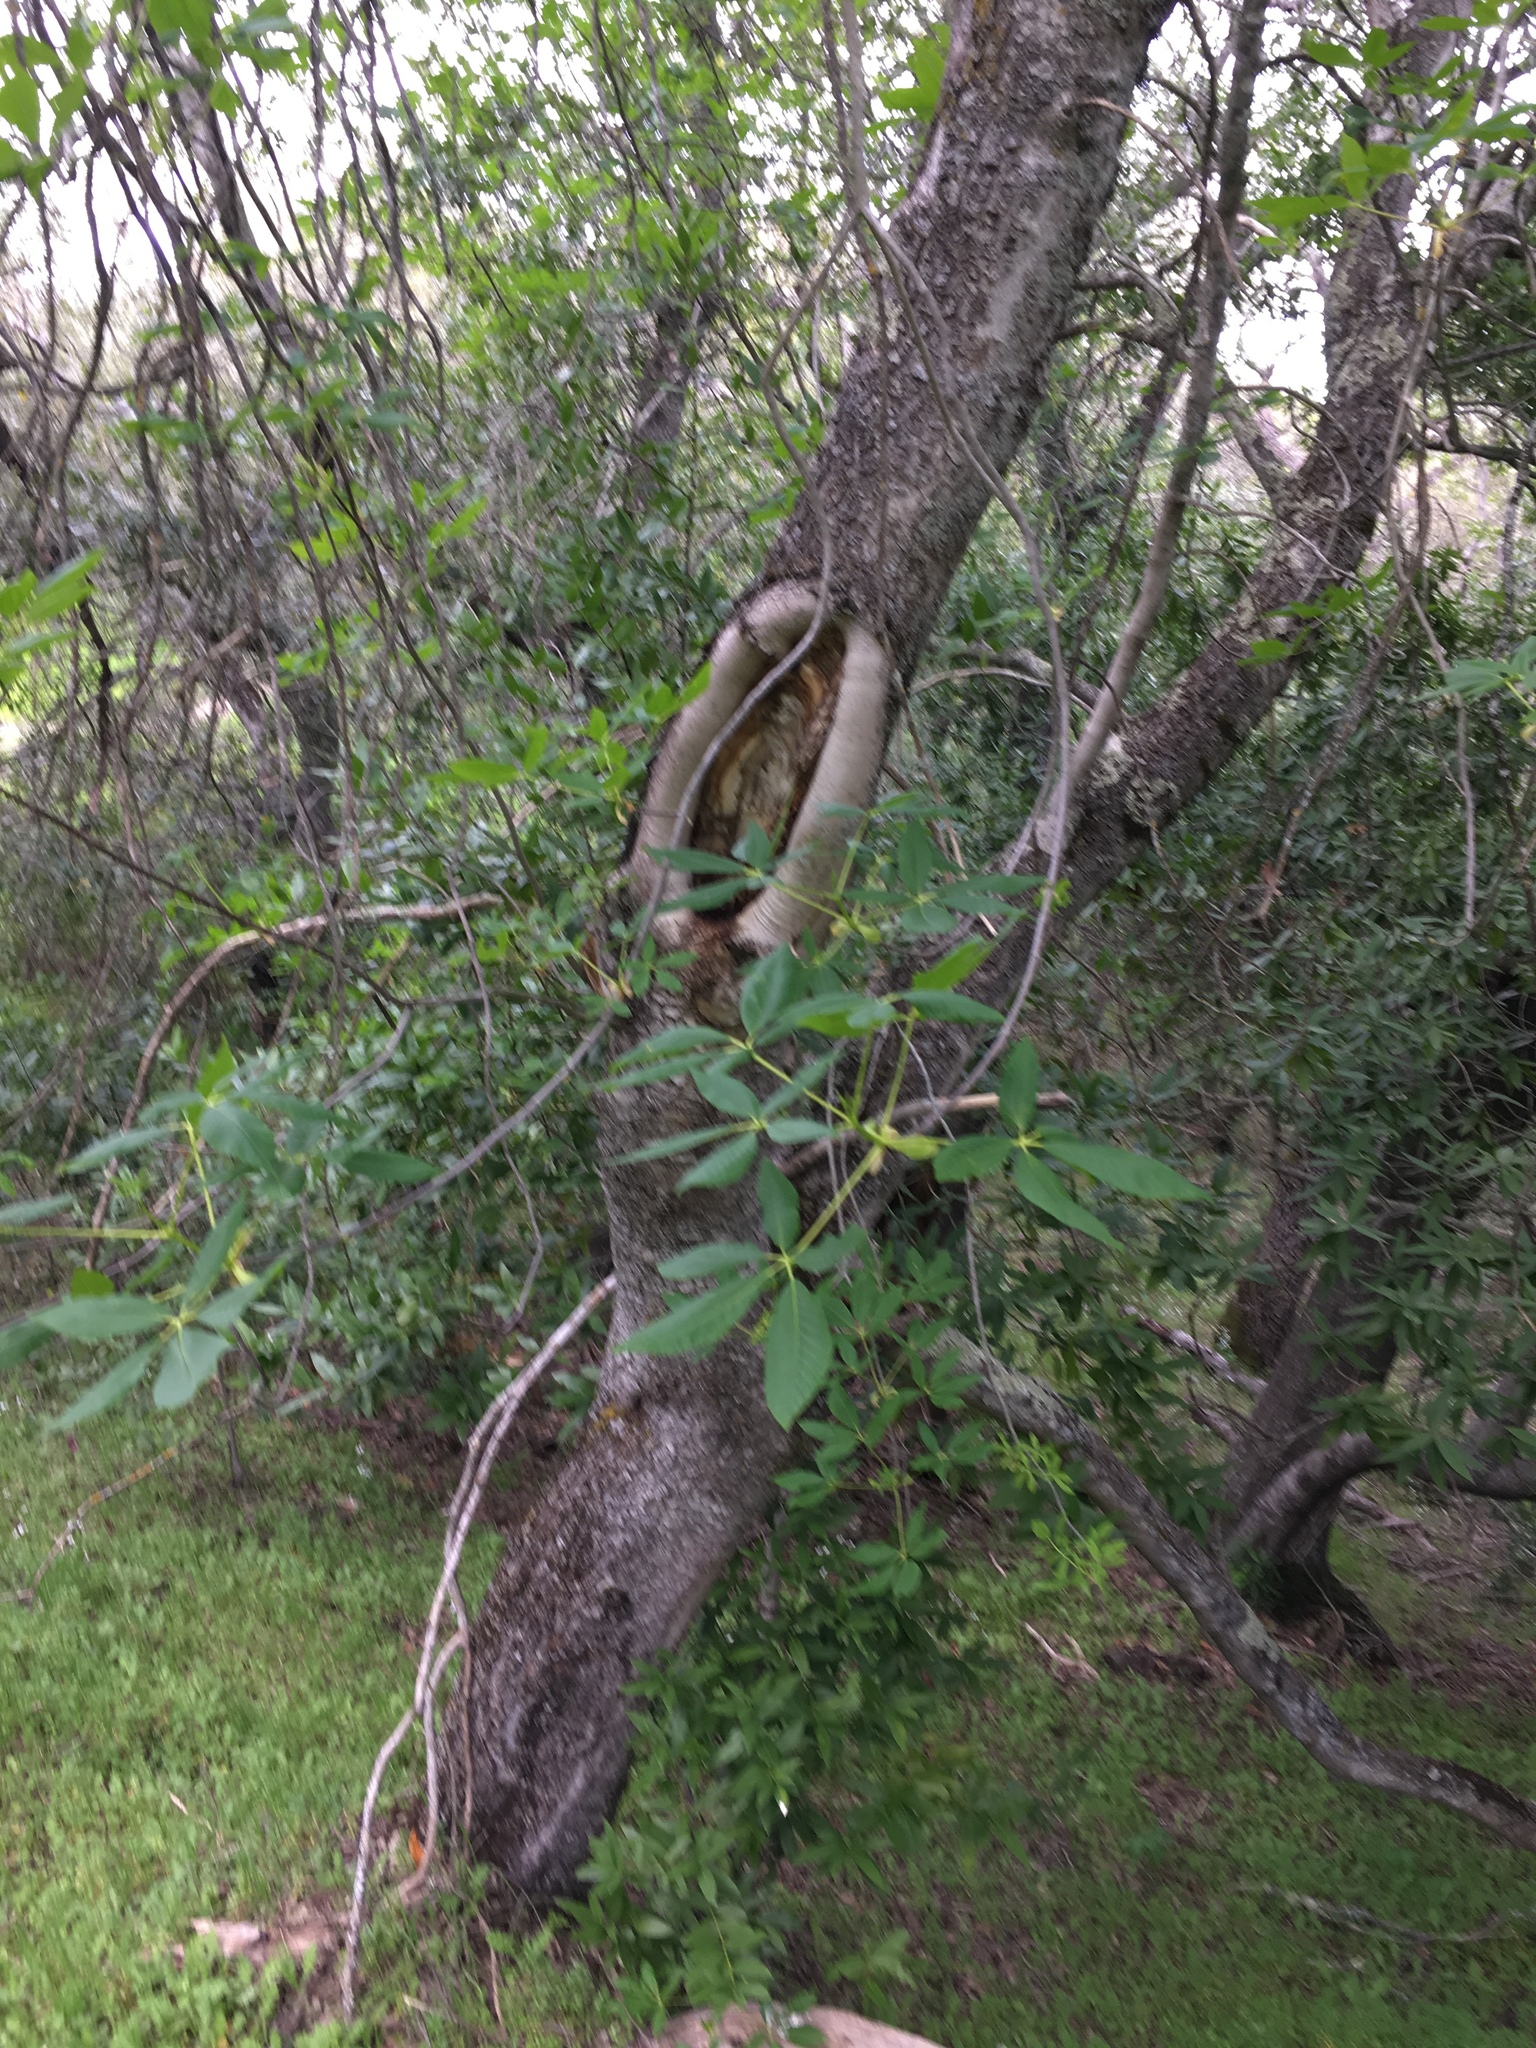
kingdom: Plantae
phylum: Tracheophyta
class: Magnoliopsida
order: Sapindales
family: Sapindaceae
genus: Aesculus
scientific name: Aesculus californica
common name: California buckeye
